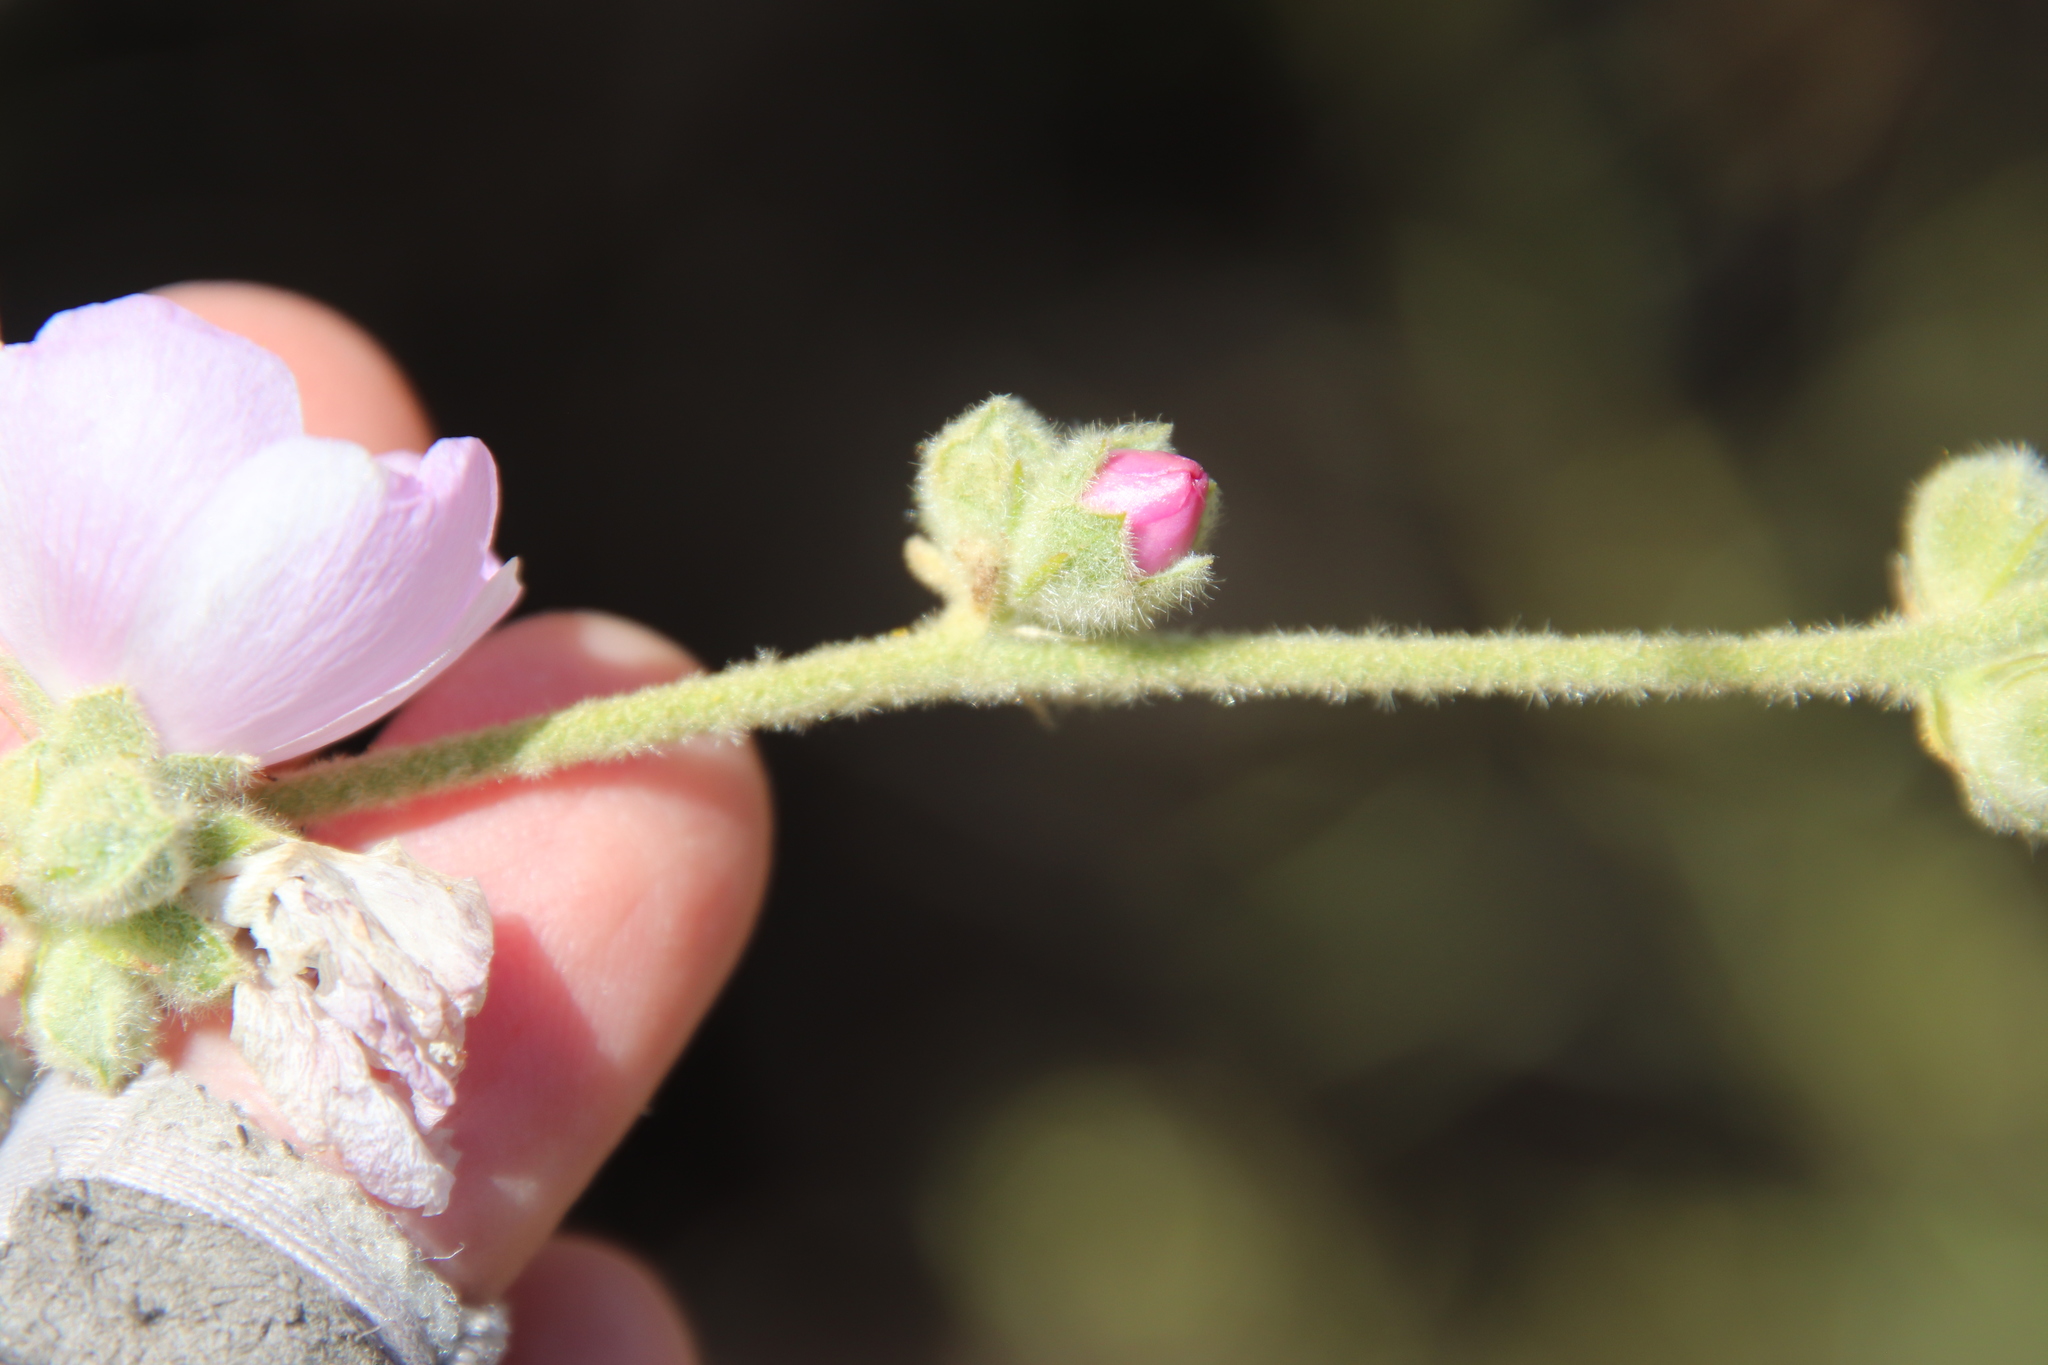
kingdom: Plantae
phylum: Tracheophyta
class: Magnoliopsida
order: Malvales
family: Malvaceae
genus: Malacothamnus
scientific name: Malacothamnus fasciculatus
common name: Sant cruz island bush-mallow
